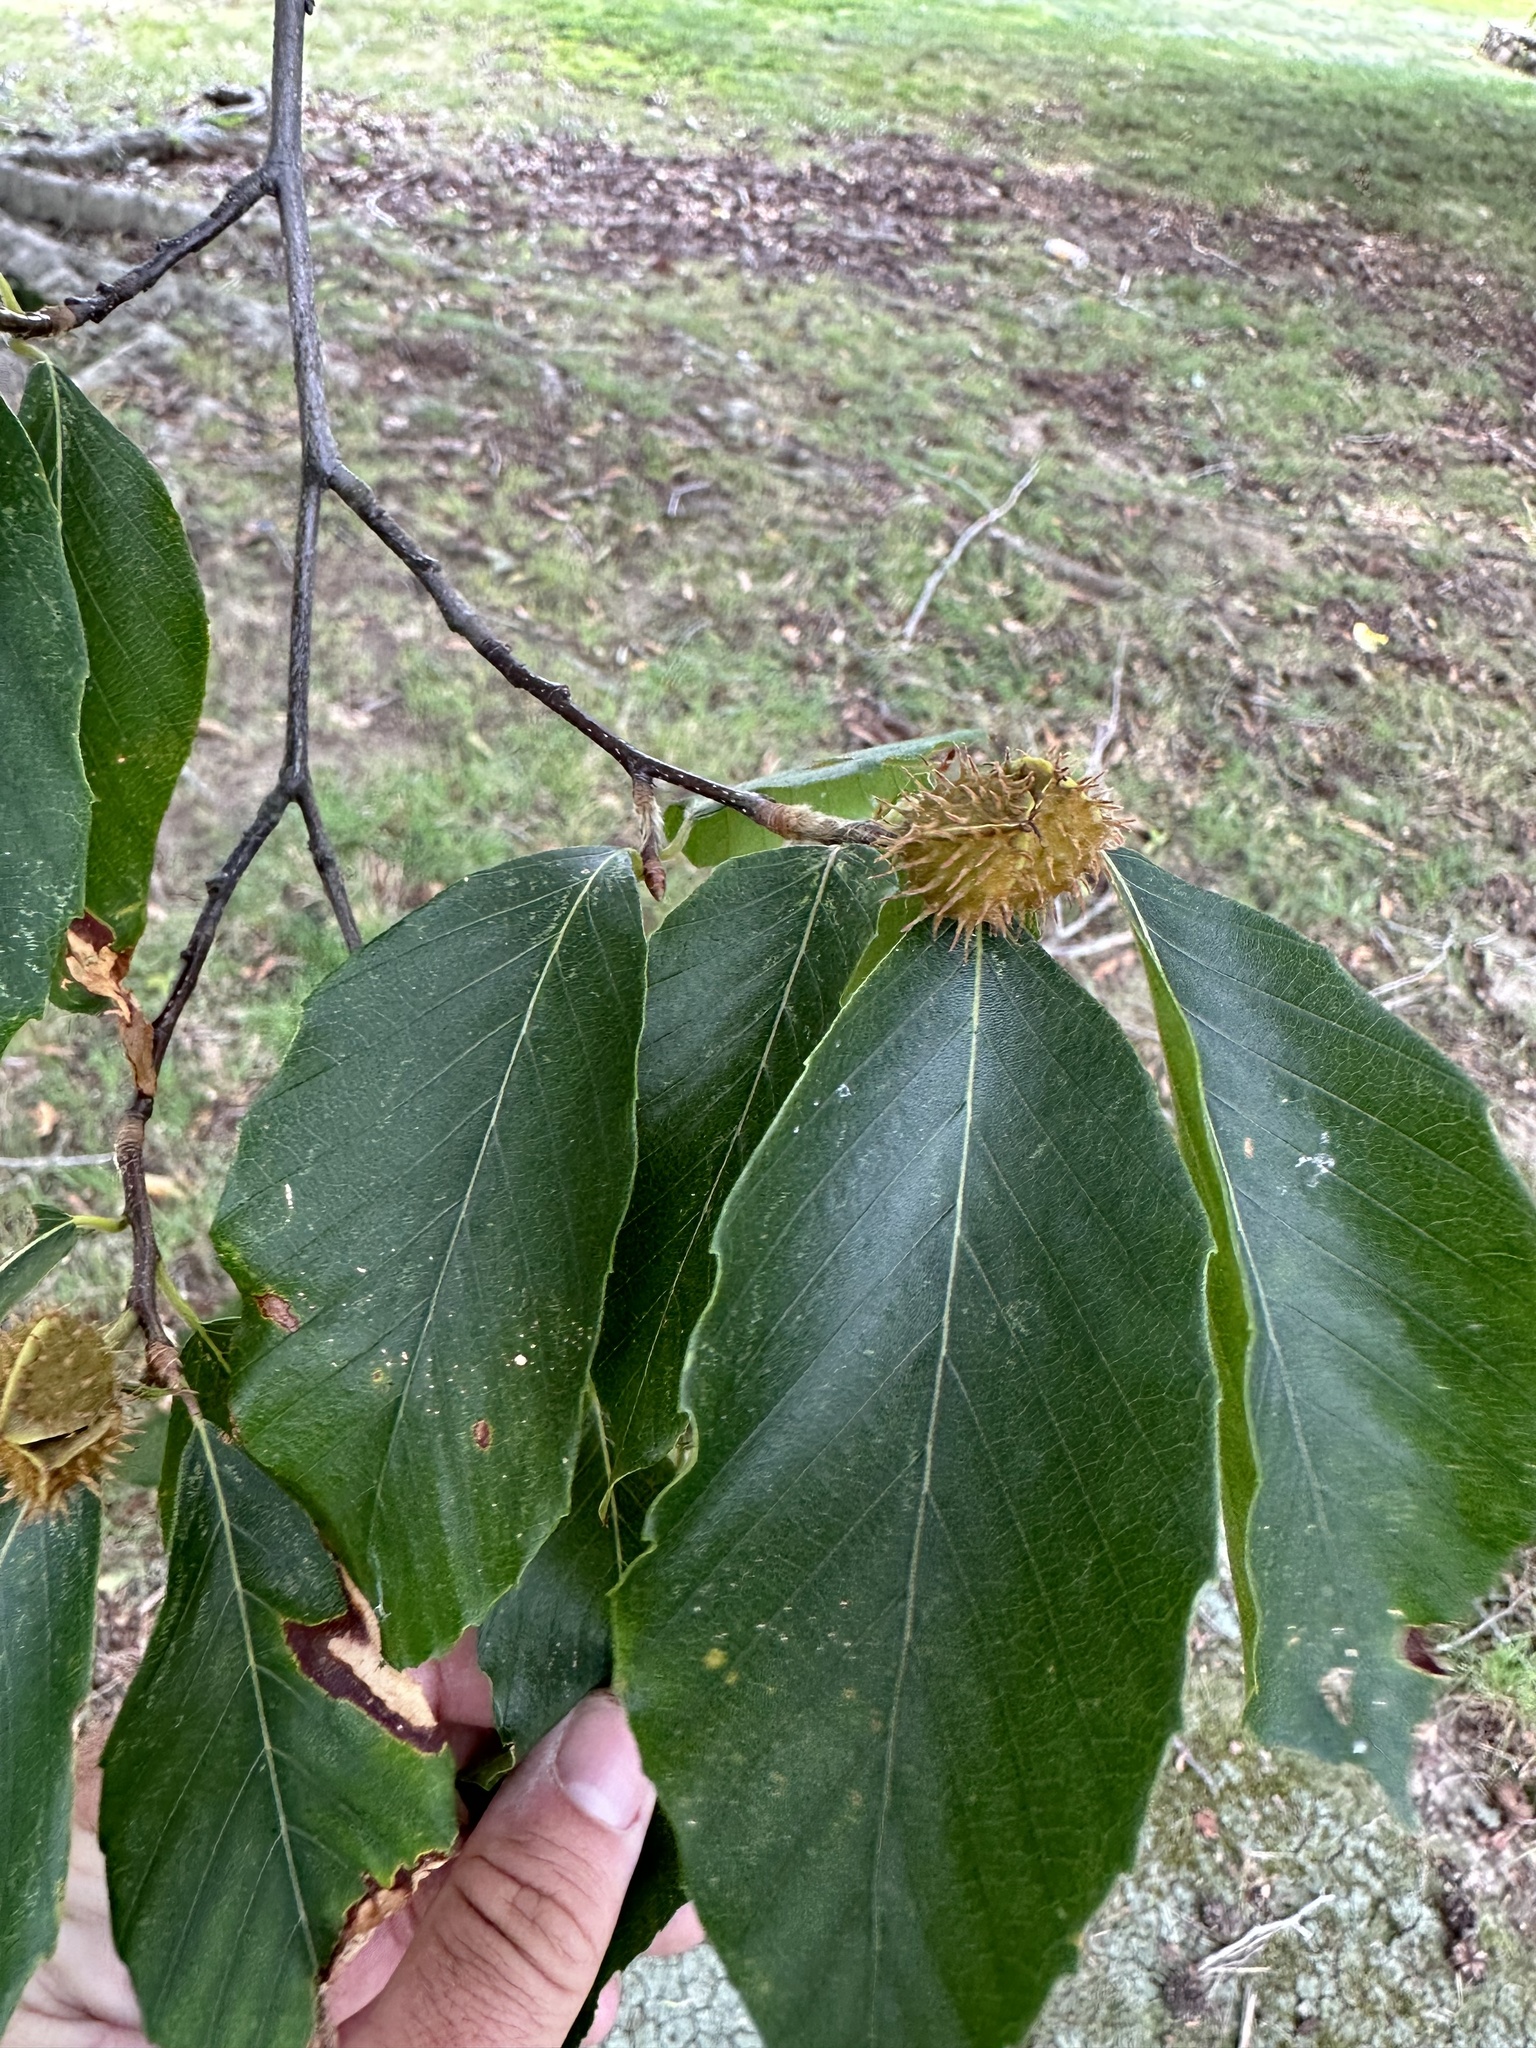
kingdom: Plantae
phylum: Tracheophyta
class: Magnoliopsida
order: Fagales
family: Fagaceae
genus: Fagus
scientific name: Fagus grandifolia
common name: American beech
